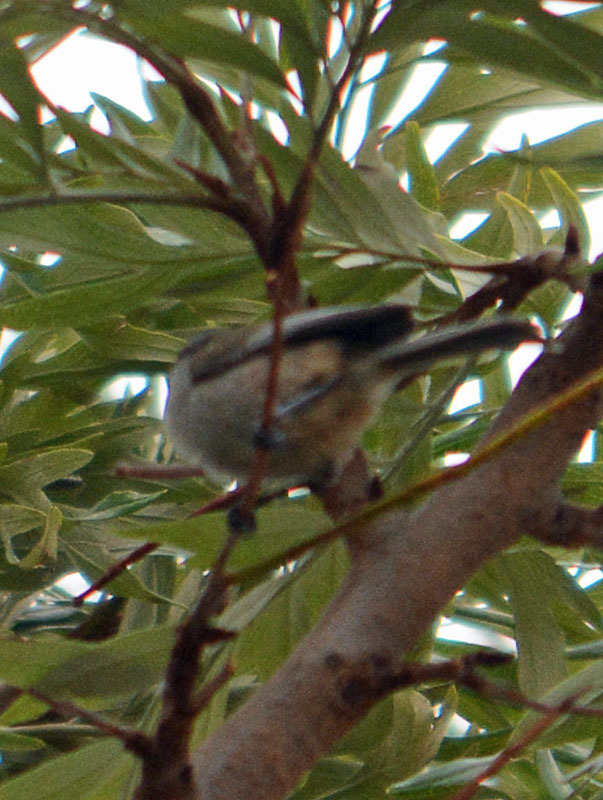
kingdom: Animalia
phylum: Chordata
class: Aves
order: Passeriformes
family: Aegithalidae
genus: Psaltriparus
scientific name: Psaltriparus minimus
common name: American bushtit
